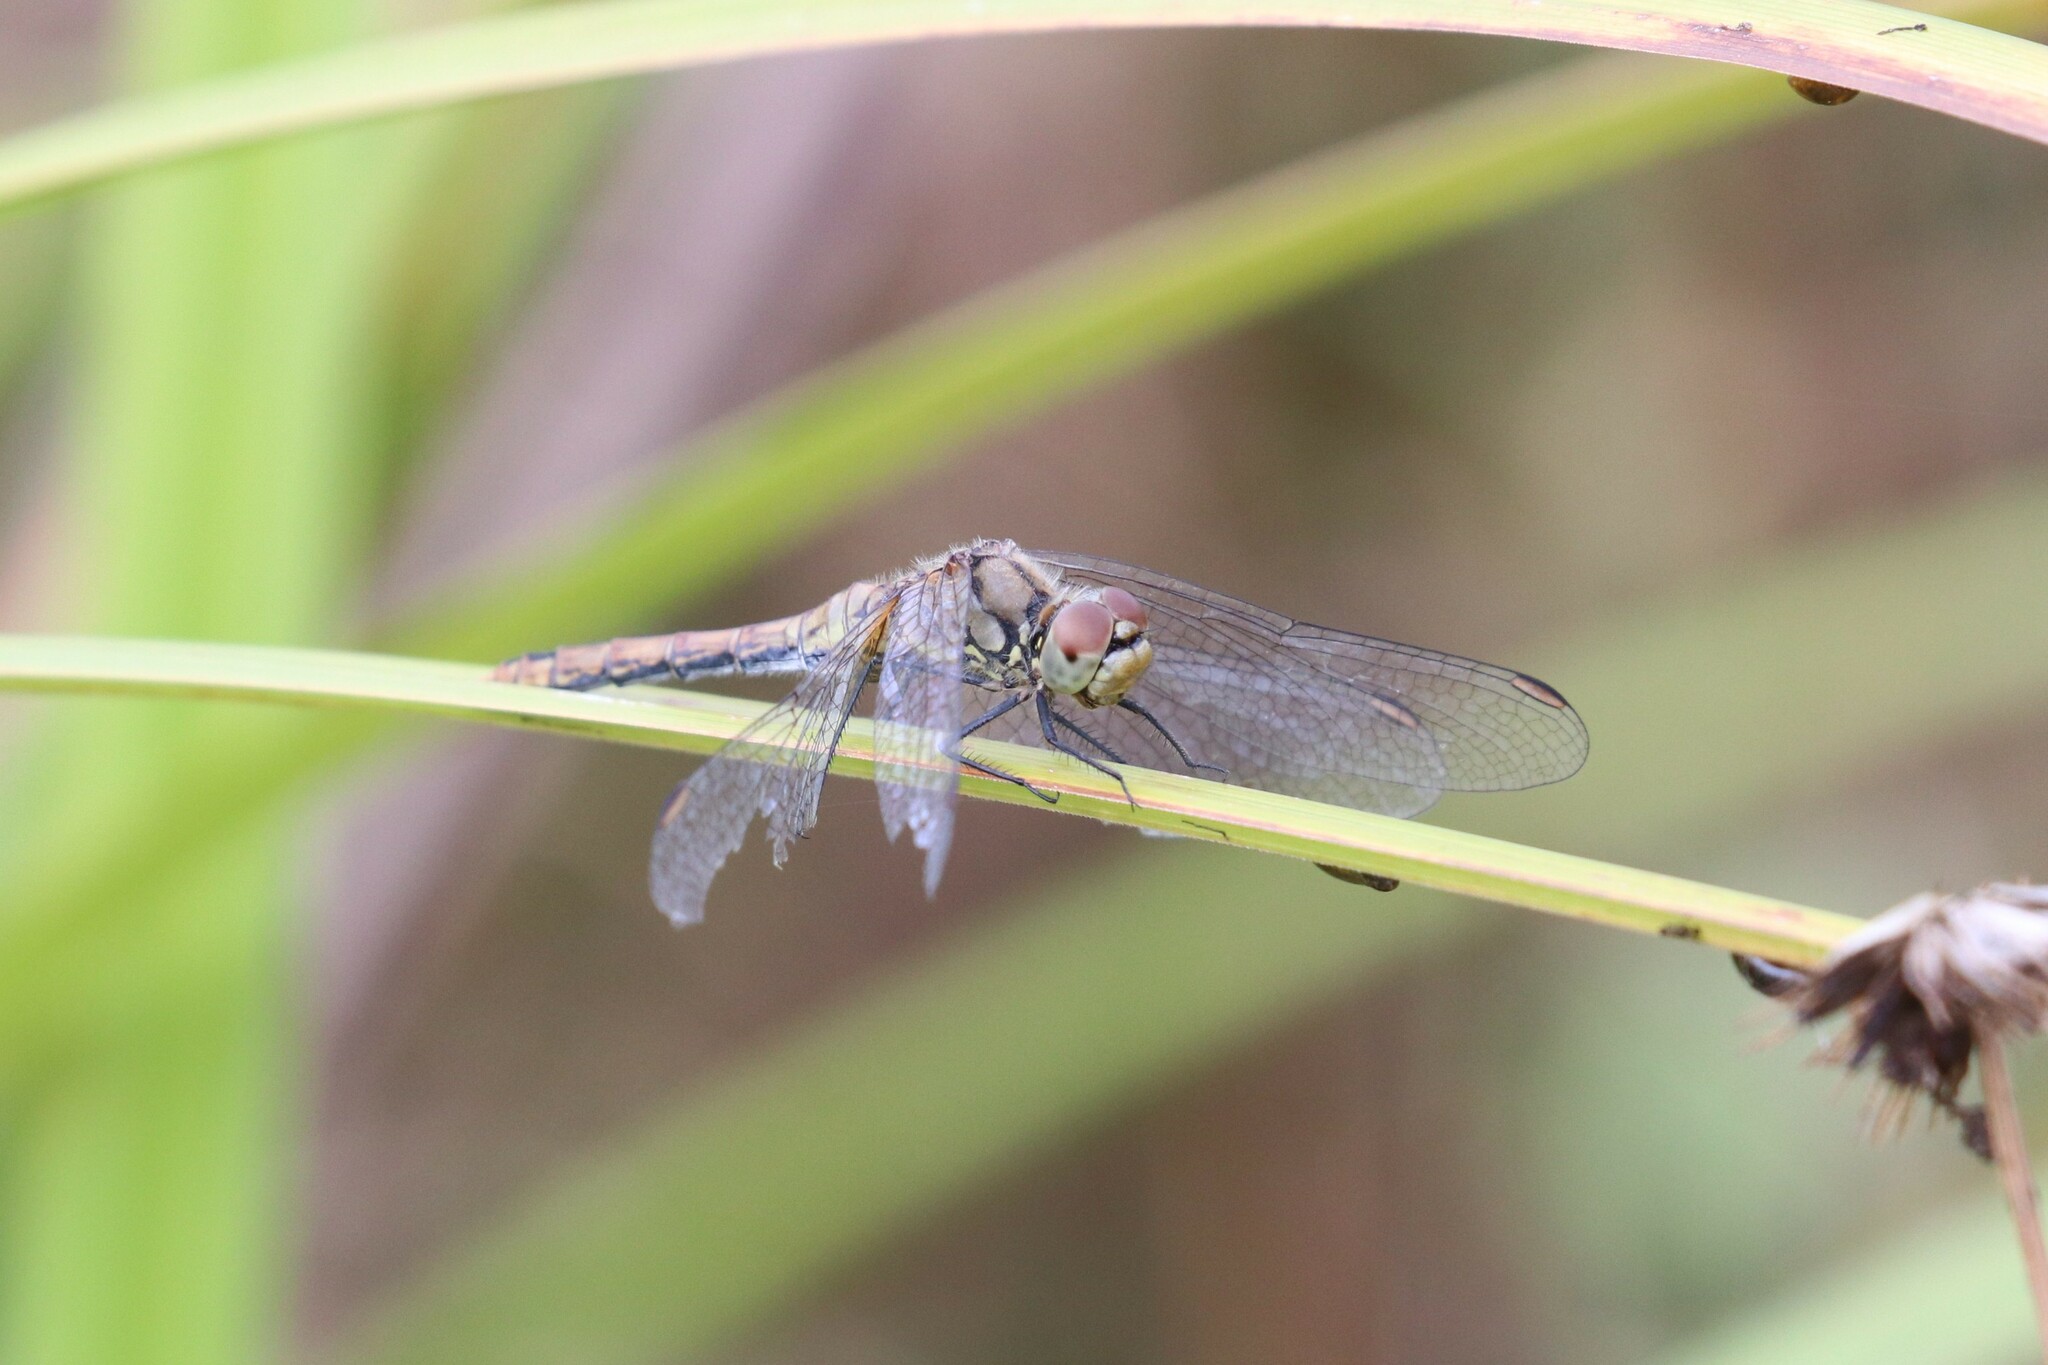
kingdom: Animalia
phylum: Arthropoda
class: Insecta
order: Odonata
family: Libellulidae
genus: Sympetrum
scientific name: Sympetrum sanguineum
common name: Ruddy darter
